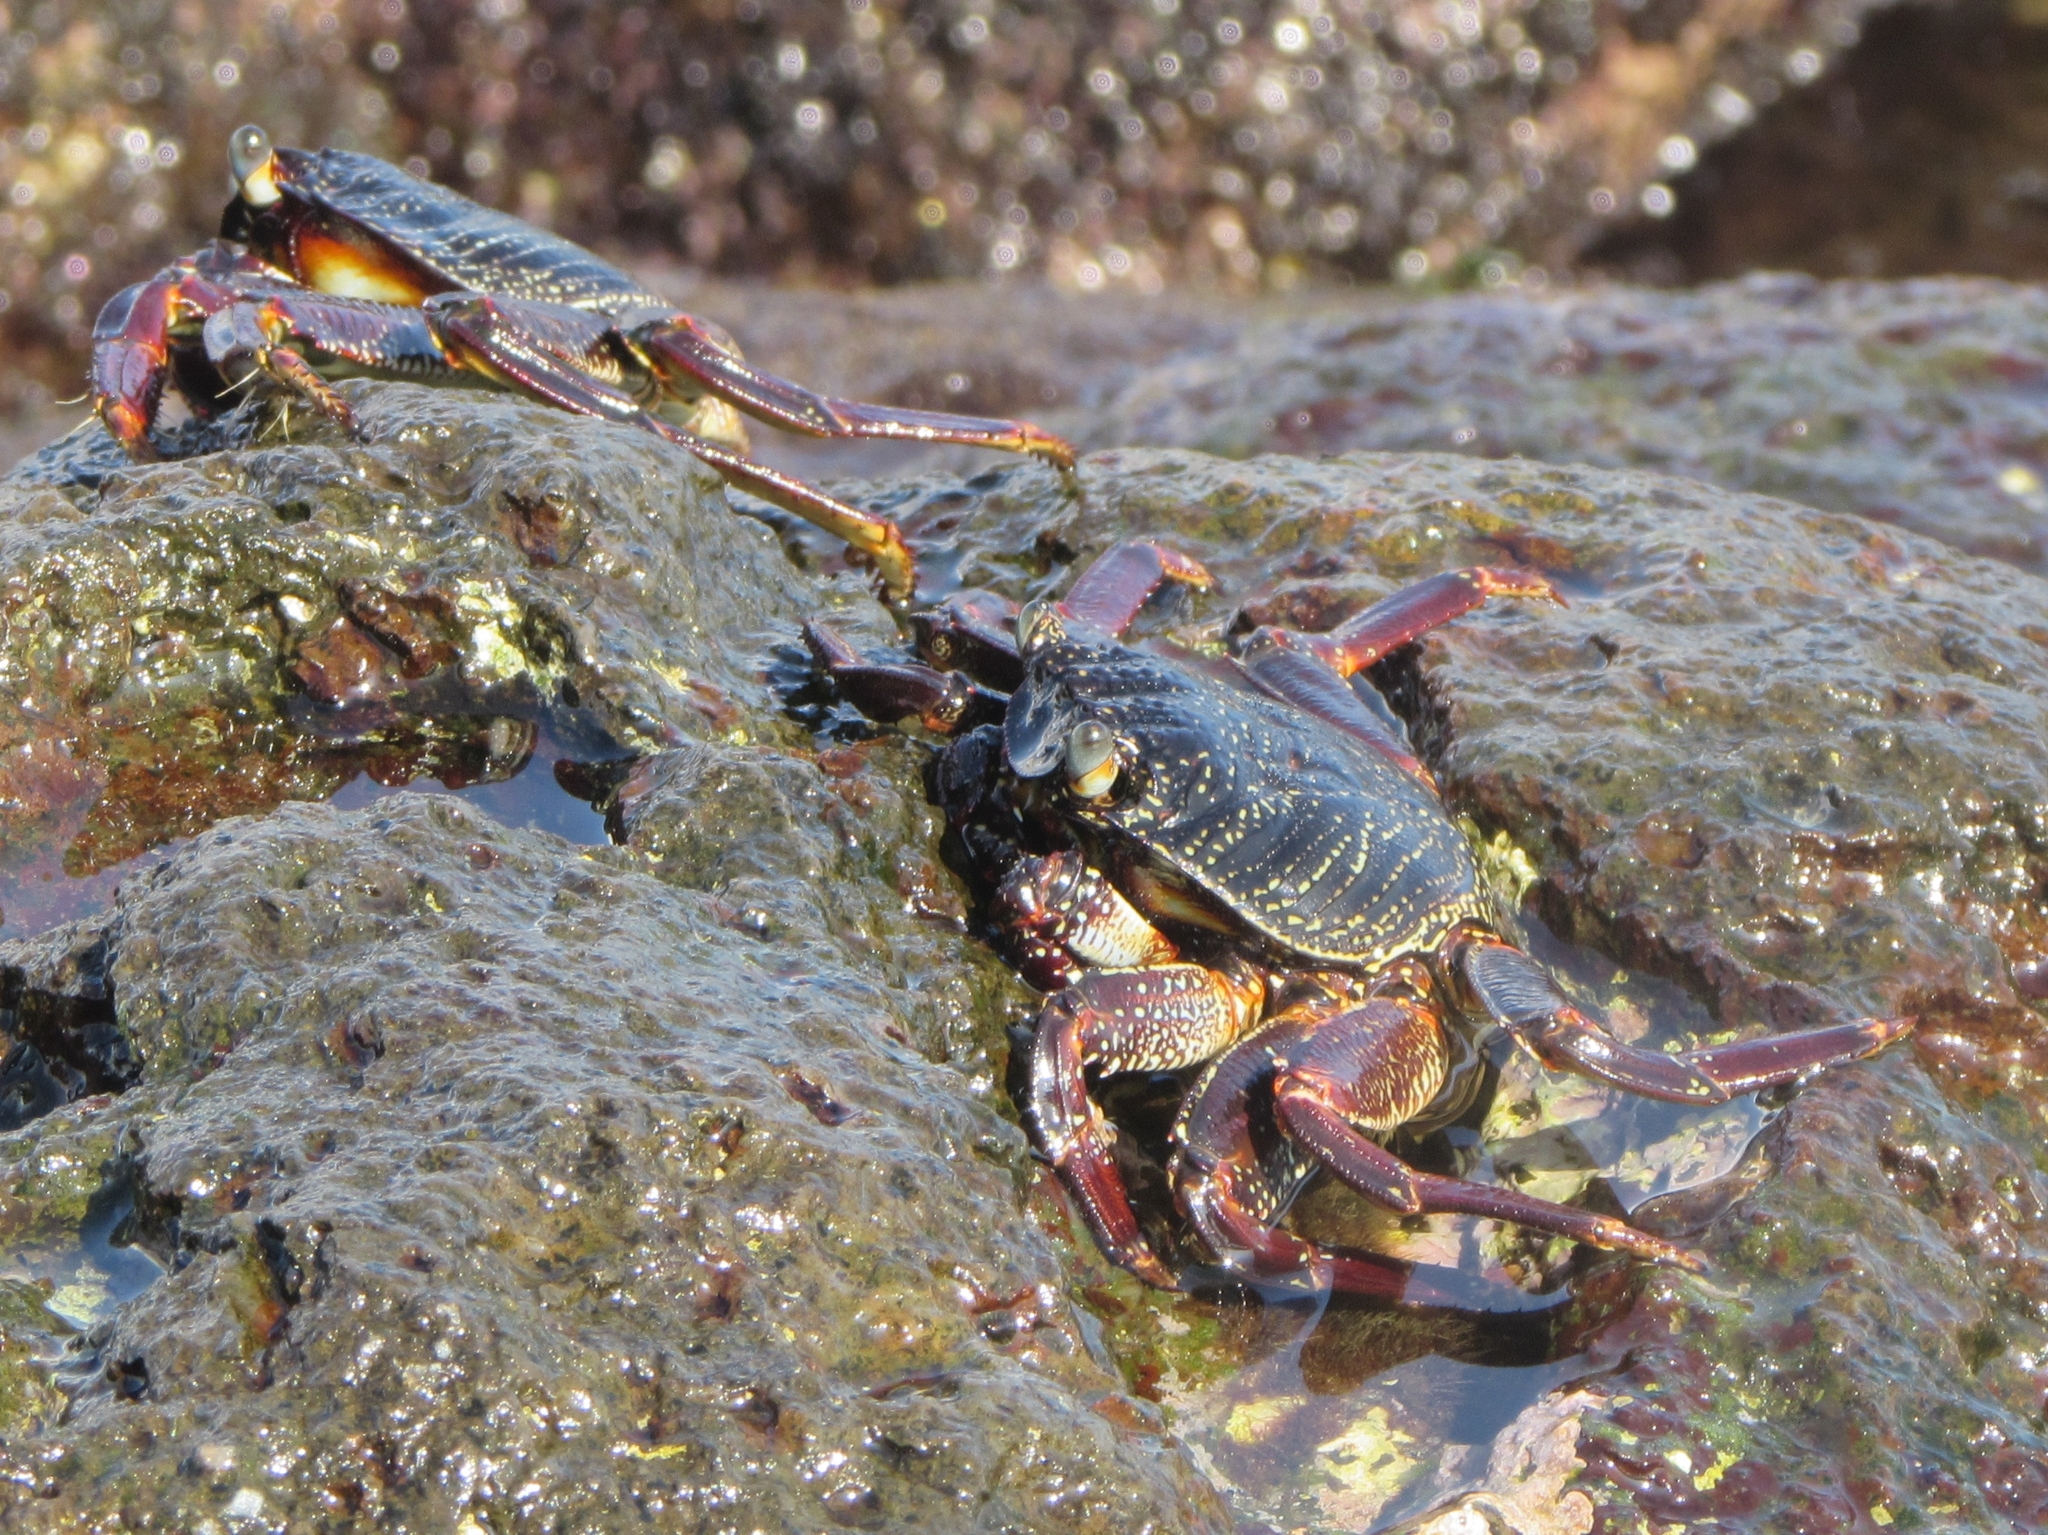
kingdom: Animalia
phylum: Arthropoda
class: Malacostraca
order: Decapoda
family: Grapsidae
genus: Grapsus
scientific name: Grapsus tenuicrustatus
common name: Natal lightfoot crab
